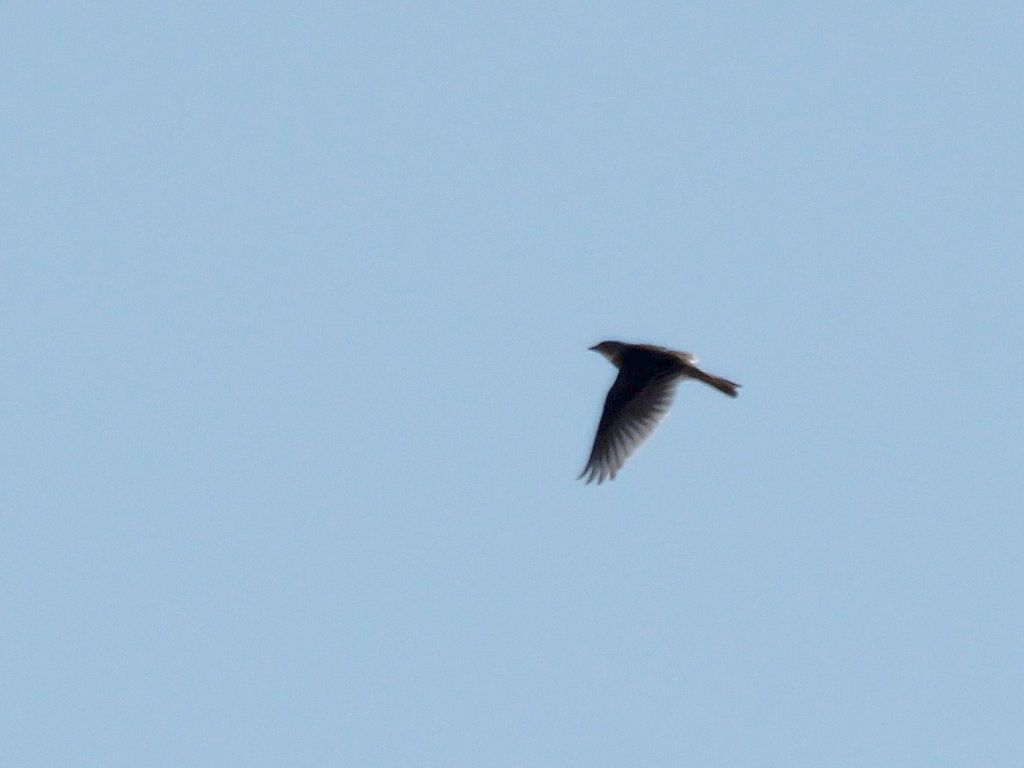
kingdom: Animalia
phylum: Chordata
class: Aves
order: Passeriformes
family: Alaudidae
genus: Alauda
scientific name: Alauda arvensis
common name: Eurasian skylark
